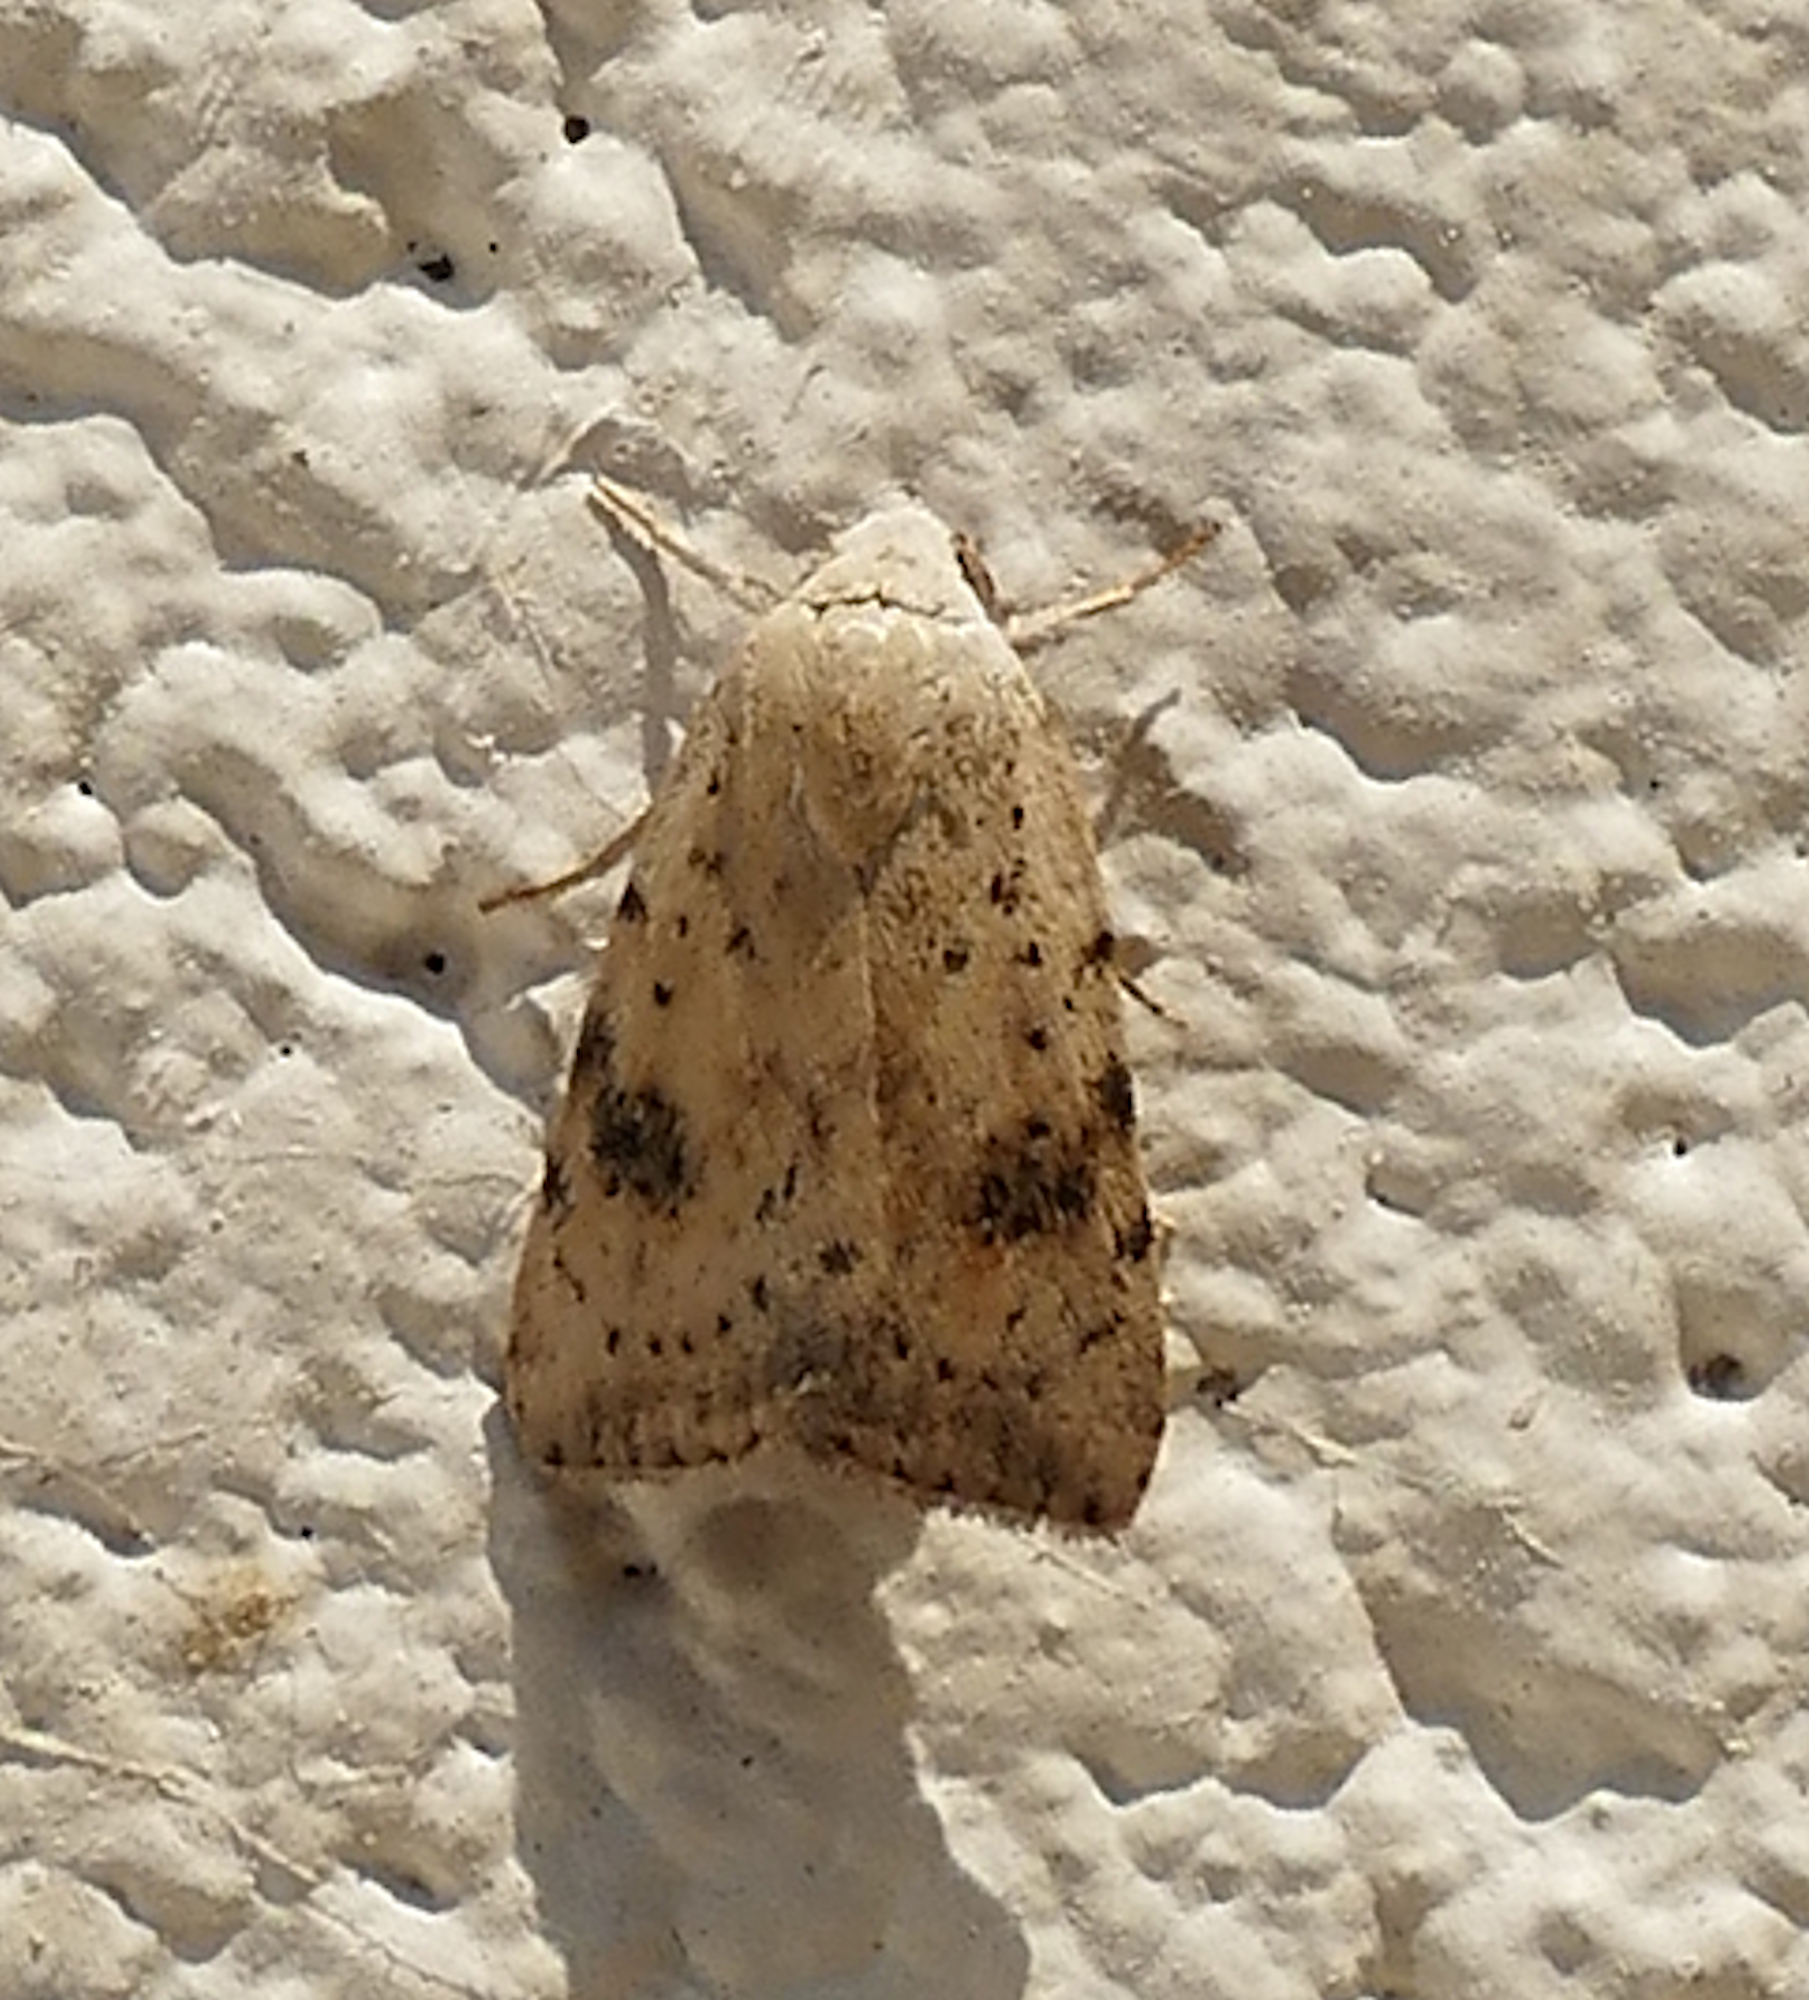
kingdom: Animalia
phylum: Arthropoda
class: Insecta
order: Lepidoptera
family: Noctuidae
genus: Micrathetis
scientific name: Micrathetis triplex
